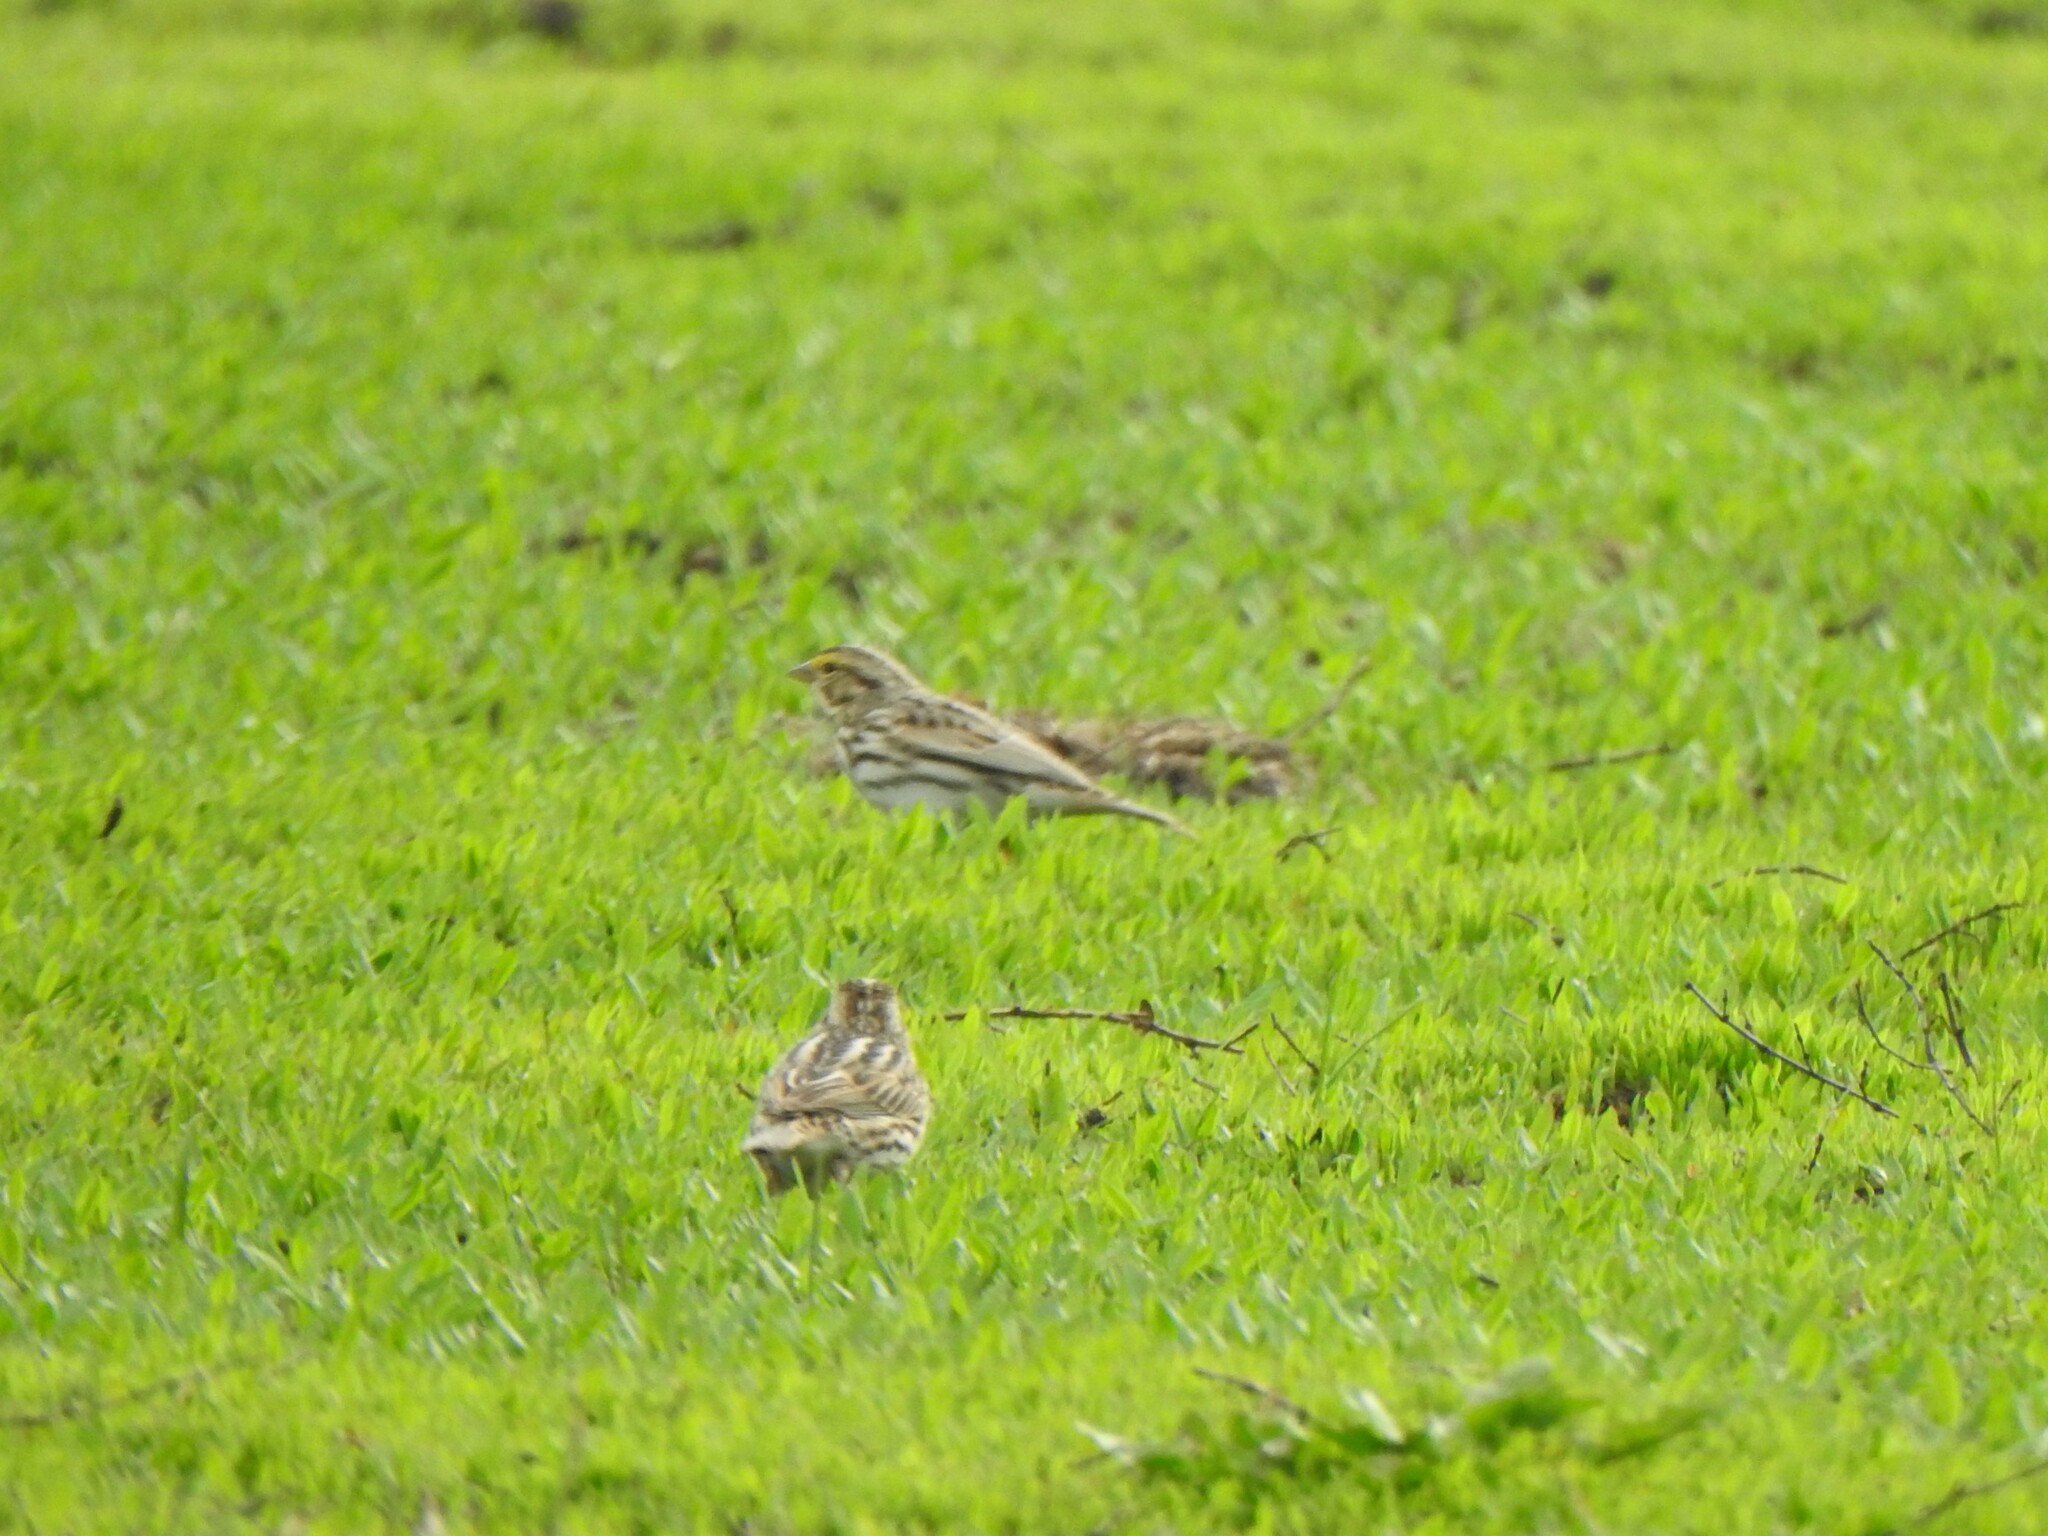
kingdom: Animalia
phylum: Chordata
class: Aves
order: Passeriformes
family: Passerellidae
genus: Passerculus
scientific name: Passerculus sandwichensis
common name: Savannah sparrow
